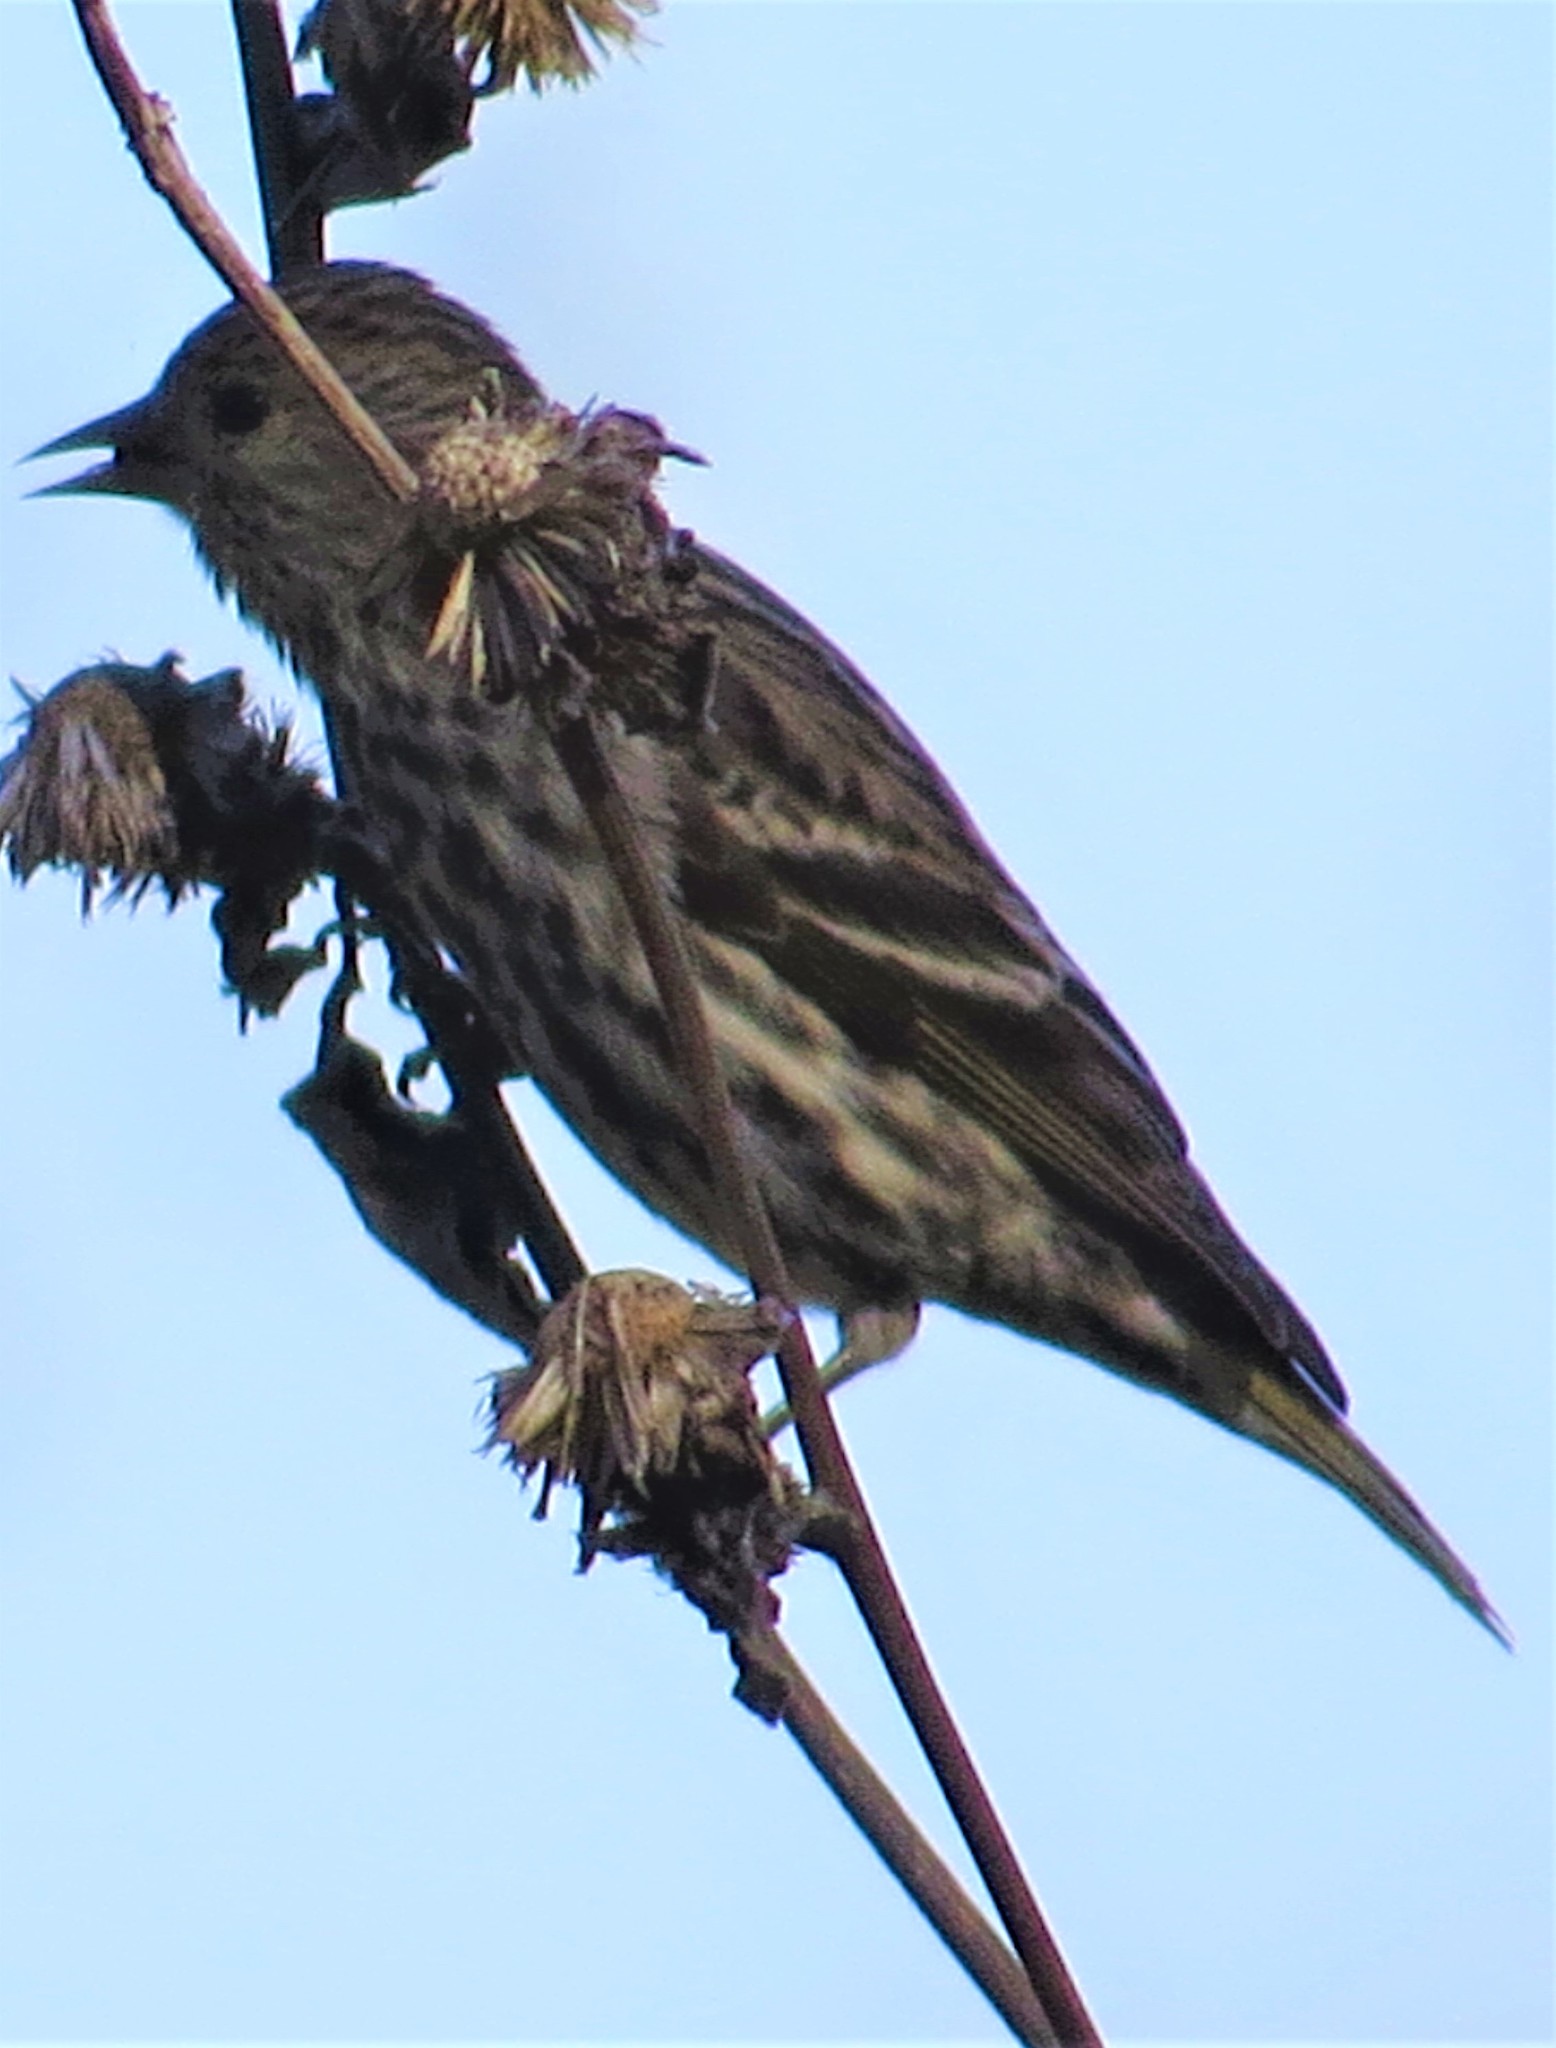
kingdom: Animalia
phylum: Chordata
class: Aves
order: Passeriformes
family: Fringillidae
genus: Spinus
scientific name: Spinus pinus
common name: Pine siskin
